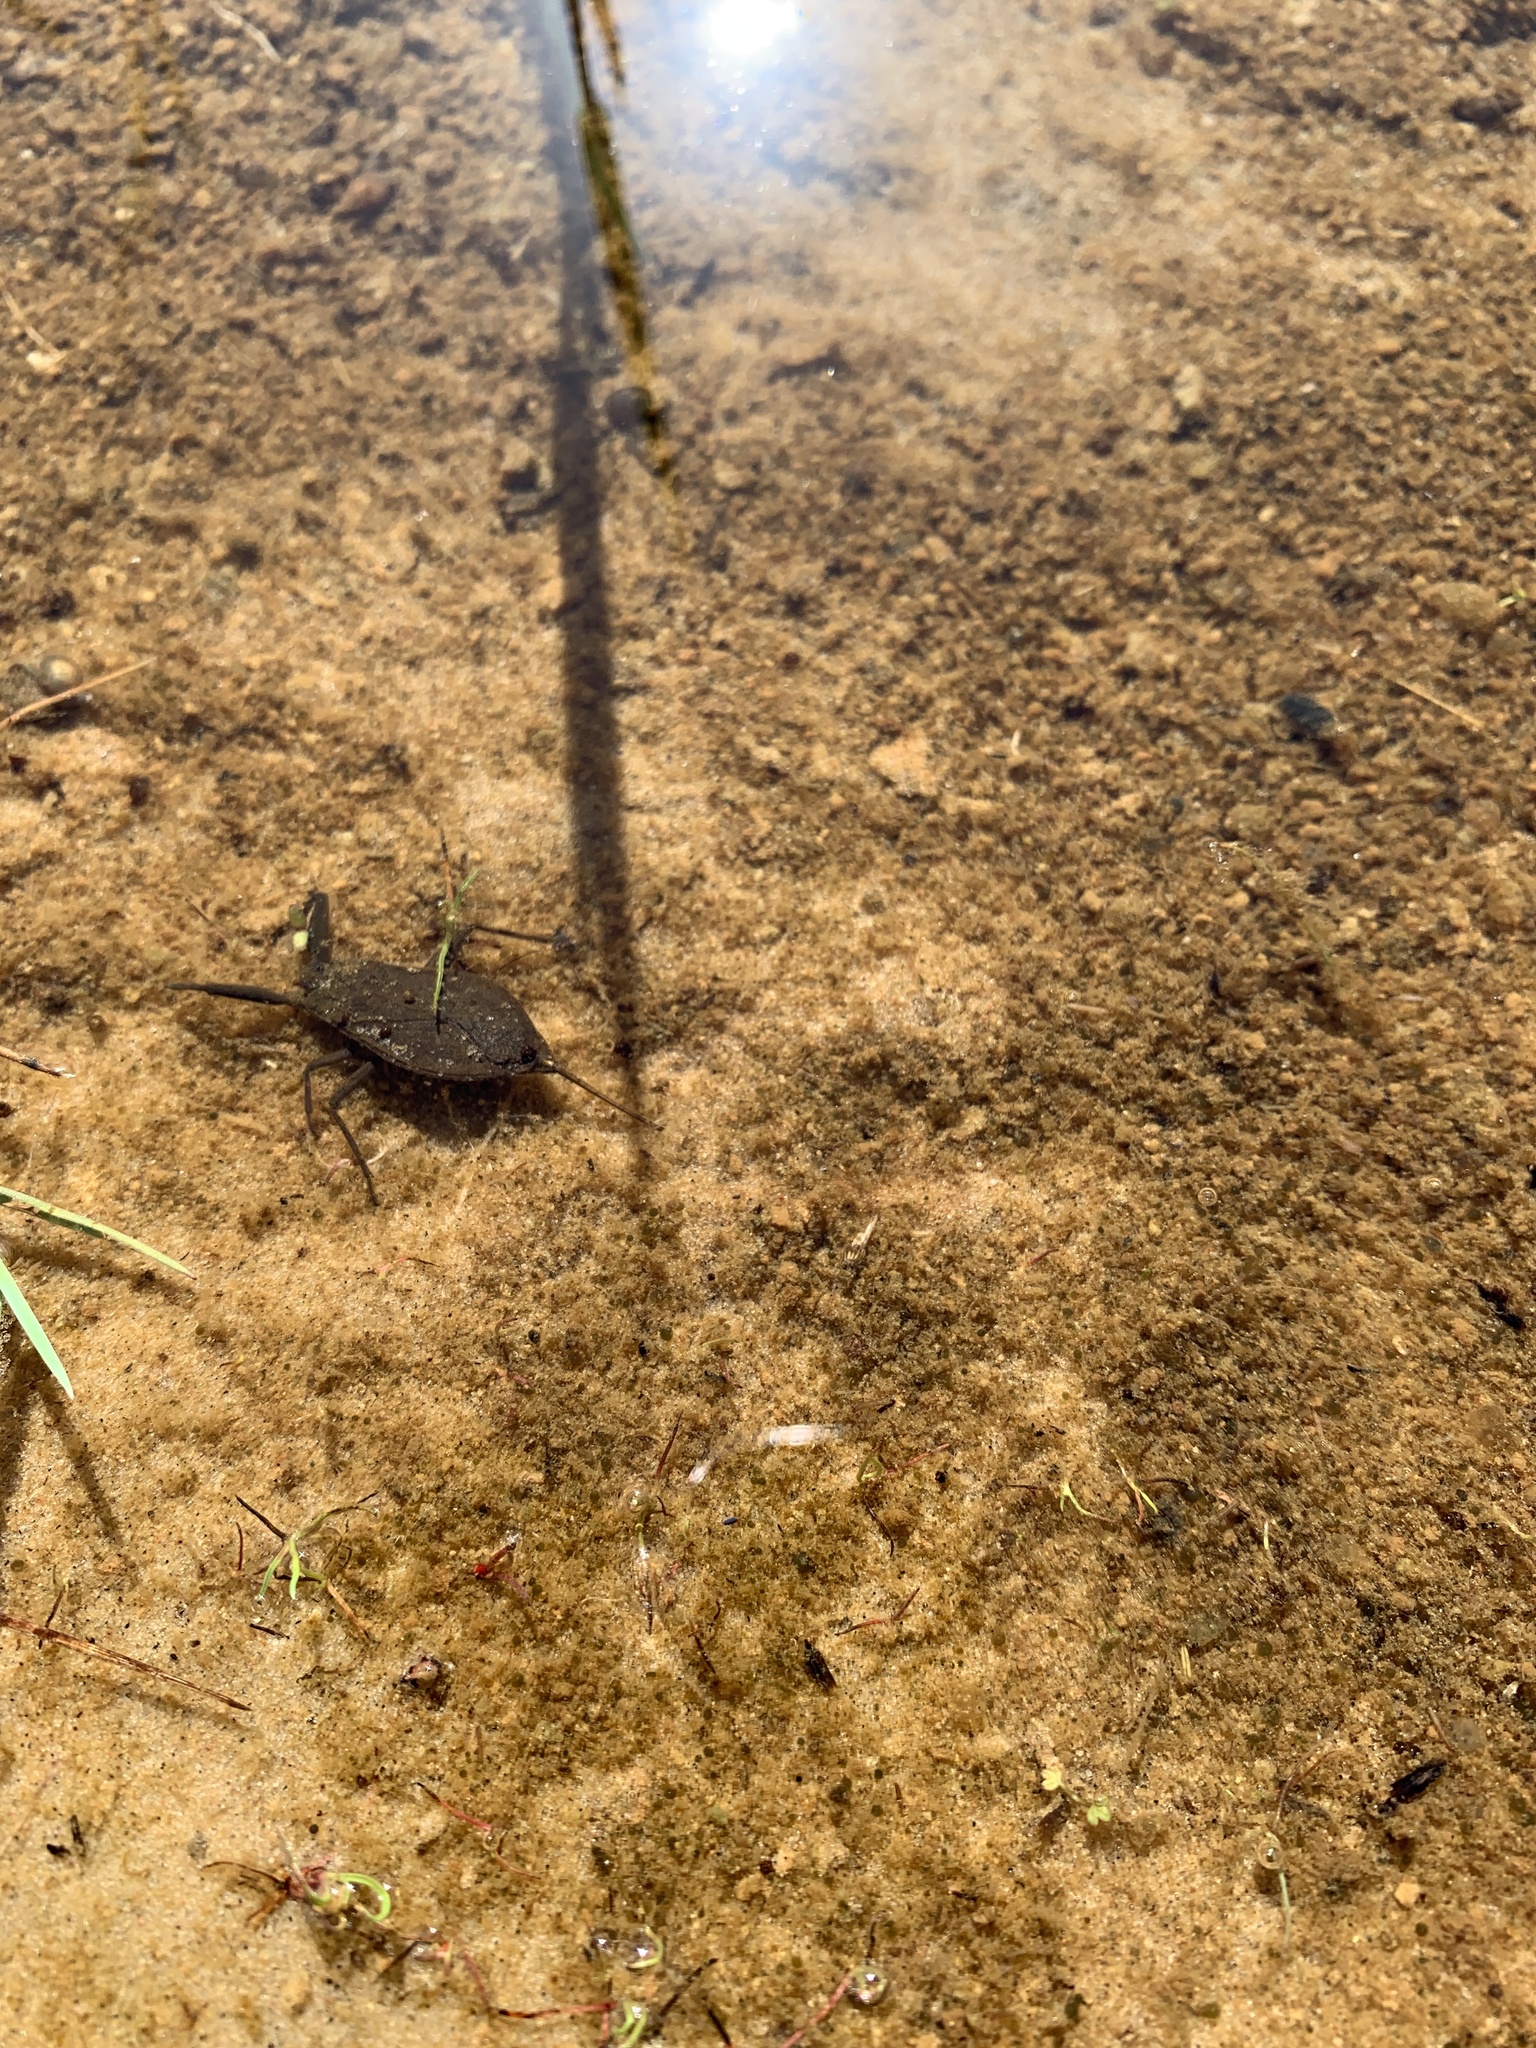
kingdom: Animalia
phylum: Arthropoda
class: Insecta
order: Hemiptera
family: Nepidae
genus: Nepa
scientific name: Nepa cinerea
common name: Water scorpion
